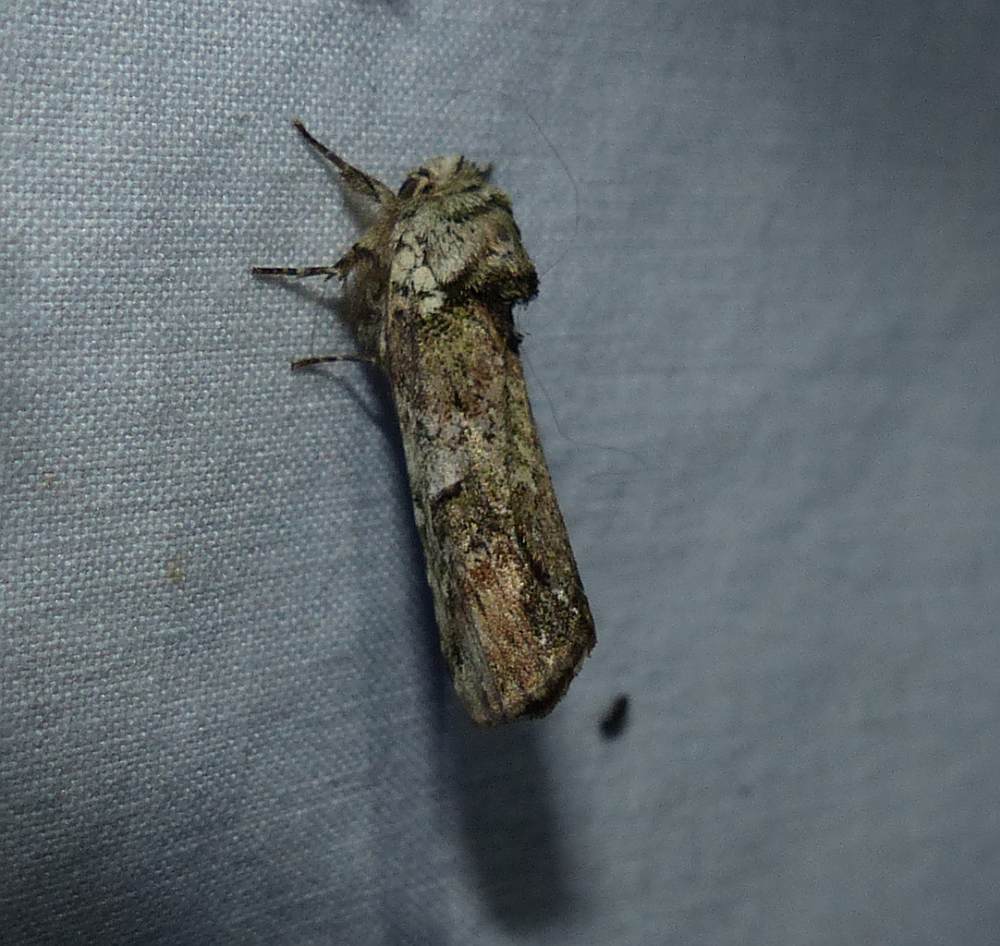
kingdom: Animalia
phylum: Arthropoda
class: Insecta
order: Lepidoptera
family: Notodontidae
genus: Schizura
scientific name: Schizura
